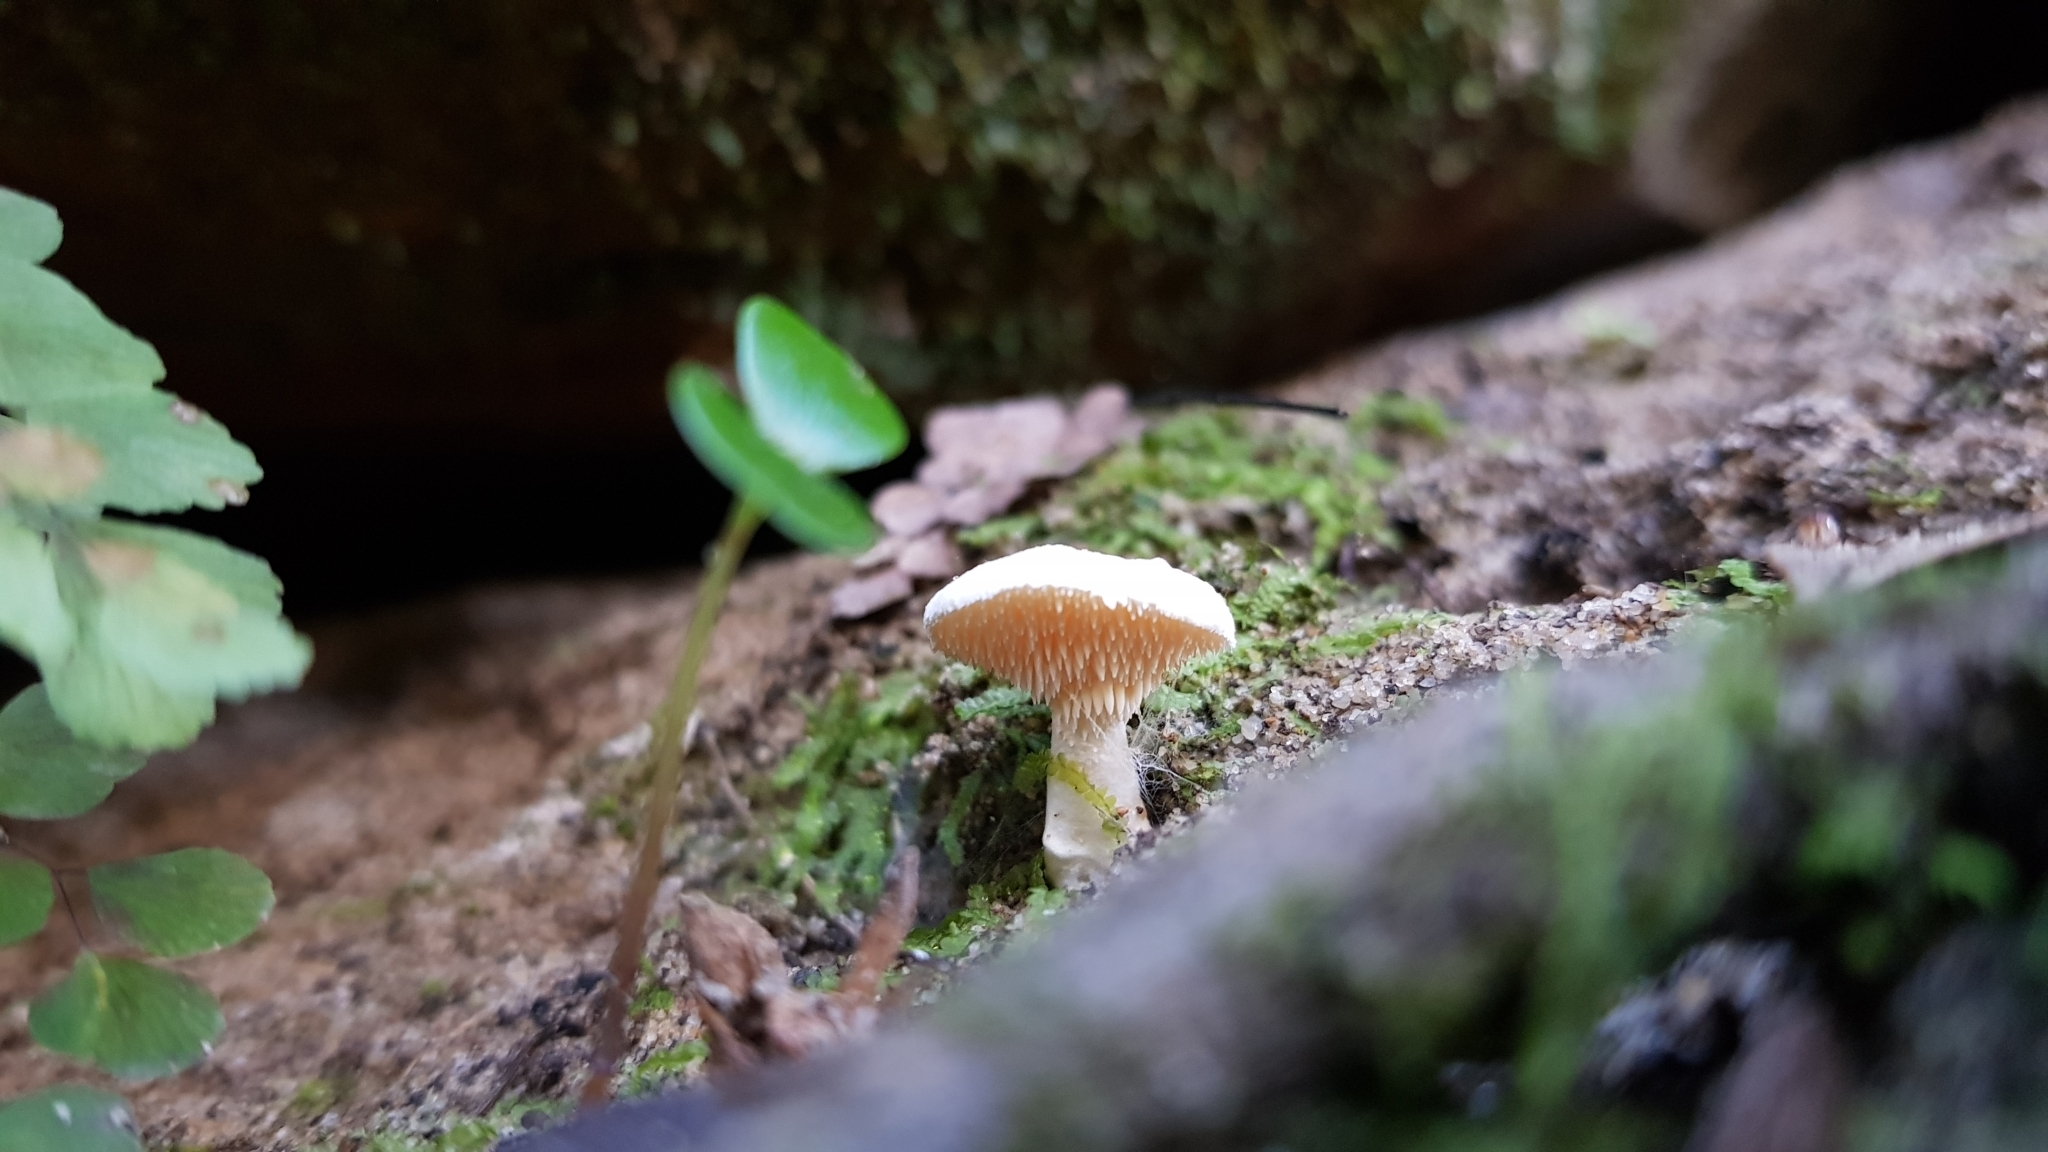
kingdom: Fungi
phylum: Basidiomycota
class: Agaricomycetes
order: Cantharellales
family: Hydnaceae
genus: Hydnum
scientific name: Hydnum ambustum
